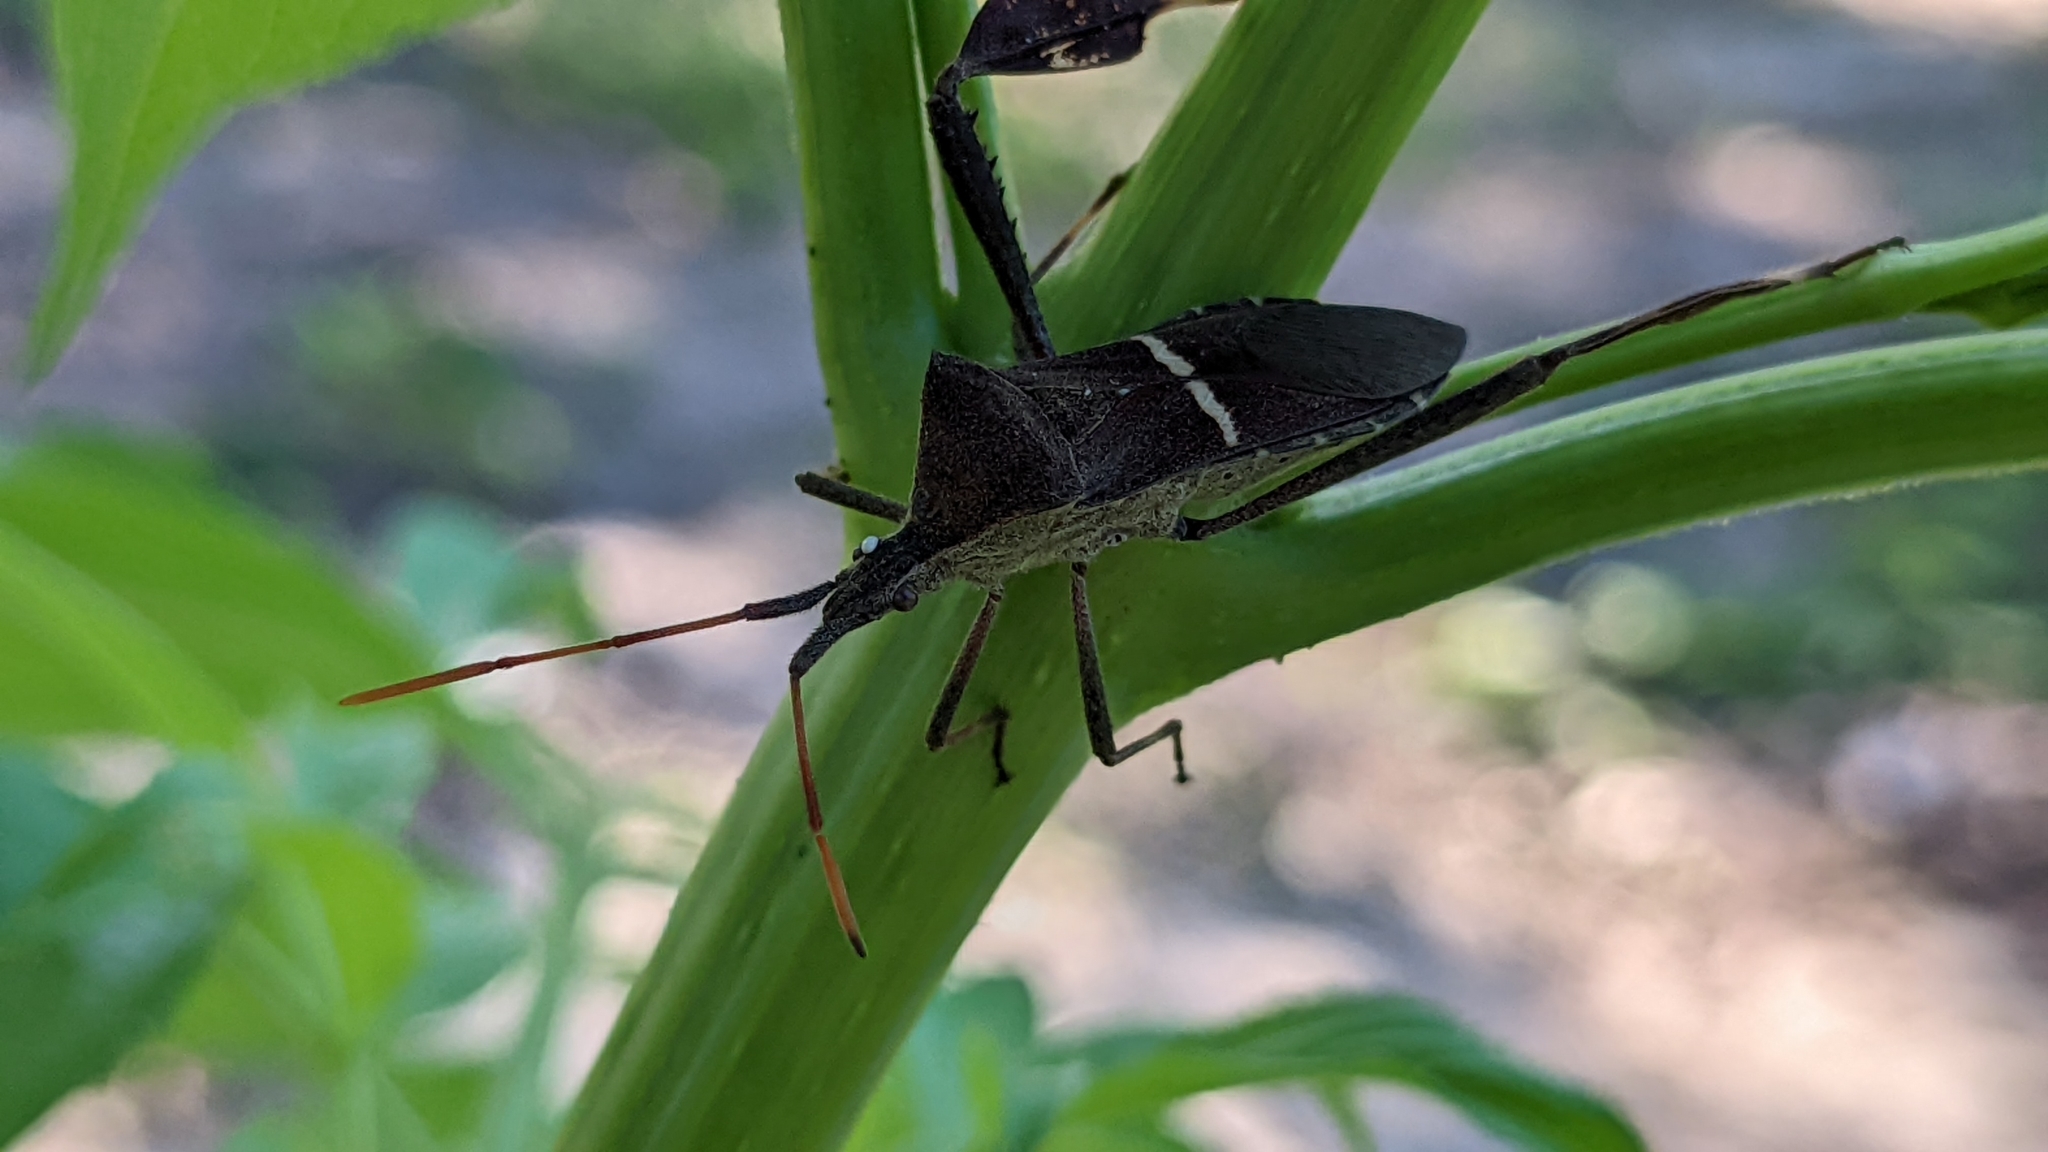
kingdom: Animalia
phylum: Arthropoda
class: Insecta
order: Hemiptera
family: Coreidae
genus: Leptoglossus
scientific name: Leptoglossus phyllopus
